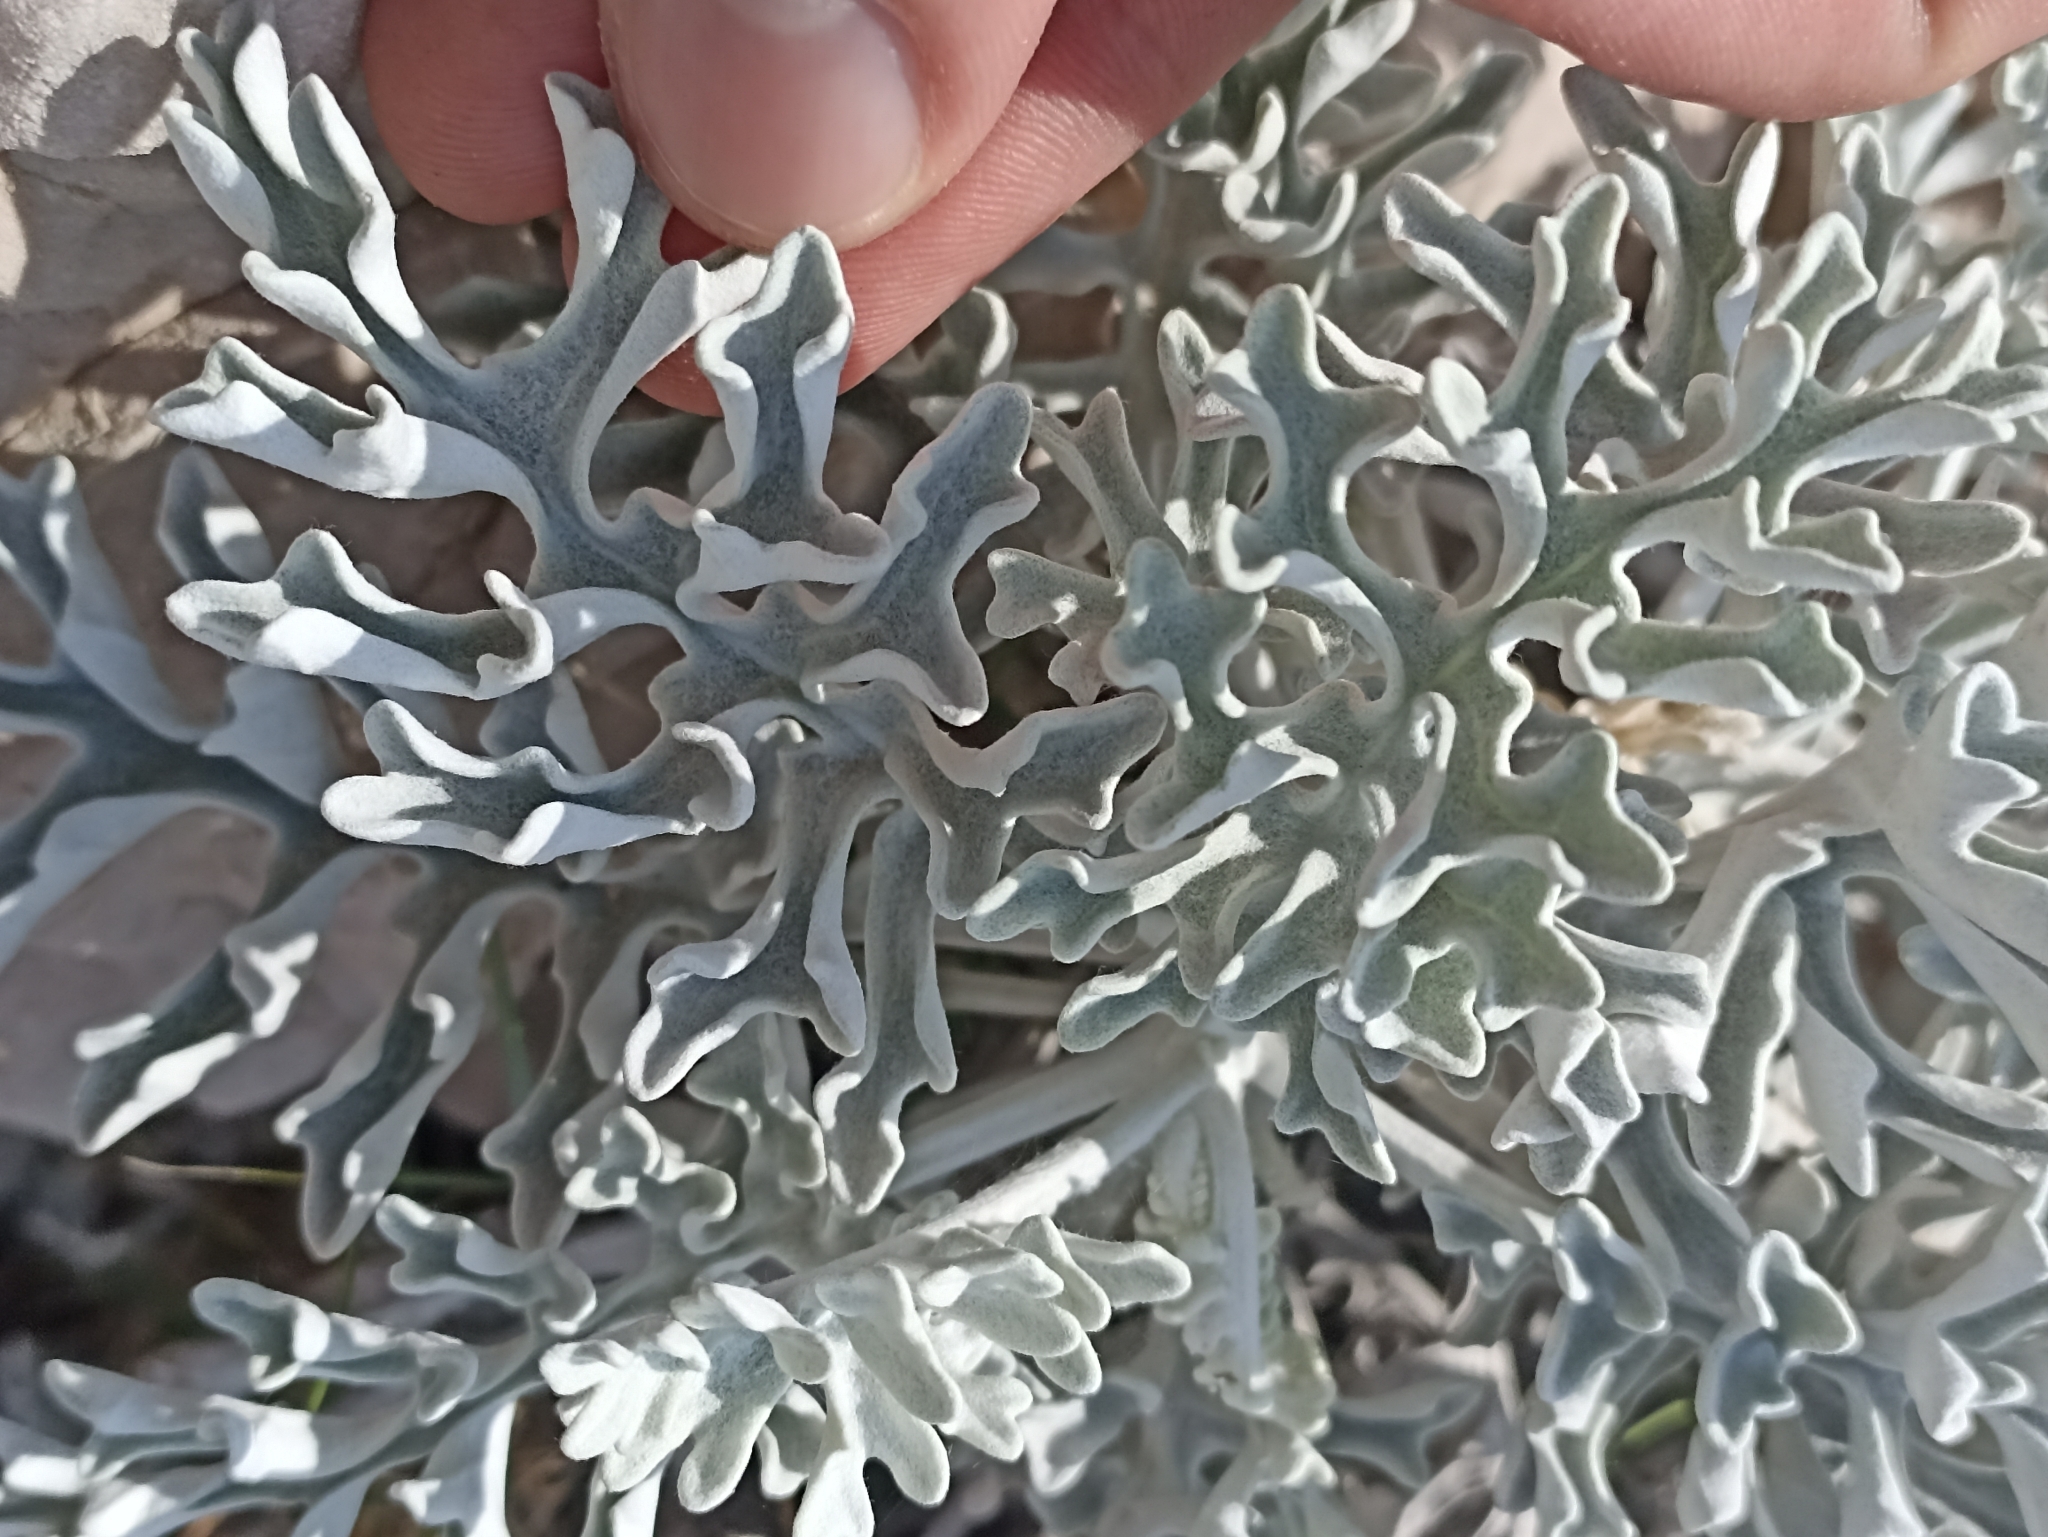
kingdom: Plantae
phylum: Tracheophyta
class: Magnoliopsida
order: Asterales
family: Asteraceae
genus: Jacobaea
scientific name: Jacobaea maritima
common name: Silver ragwort
